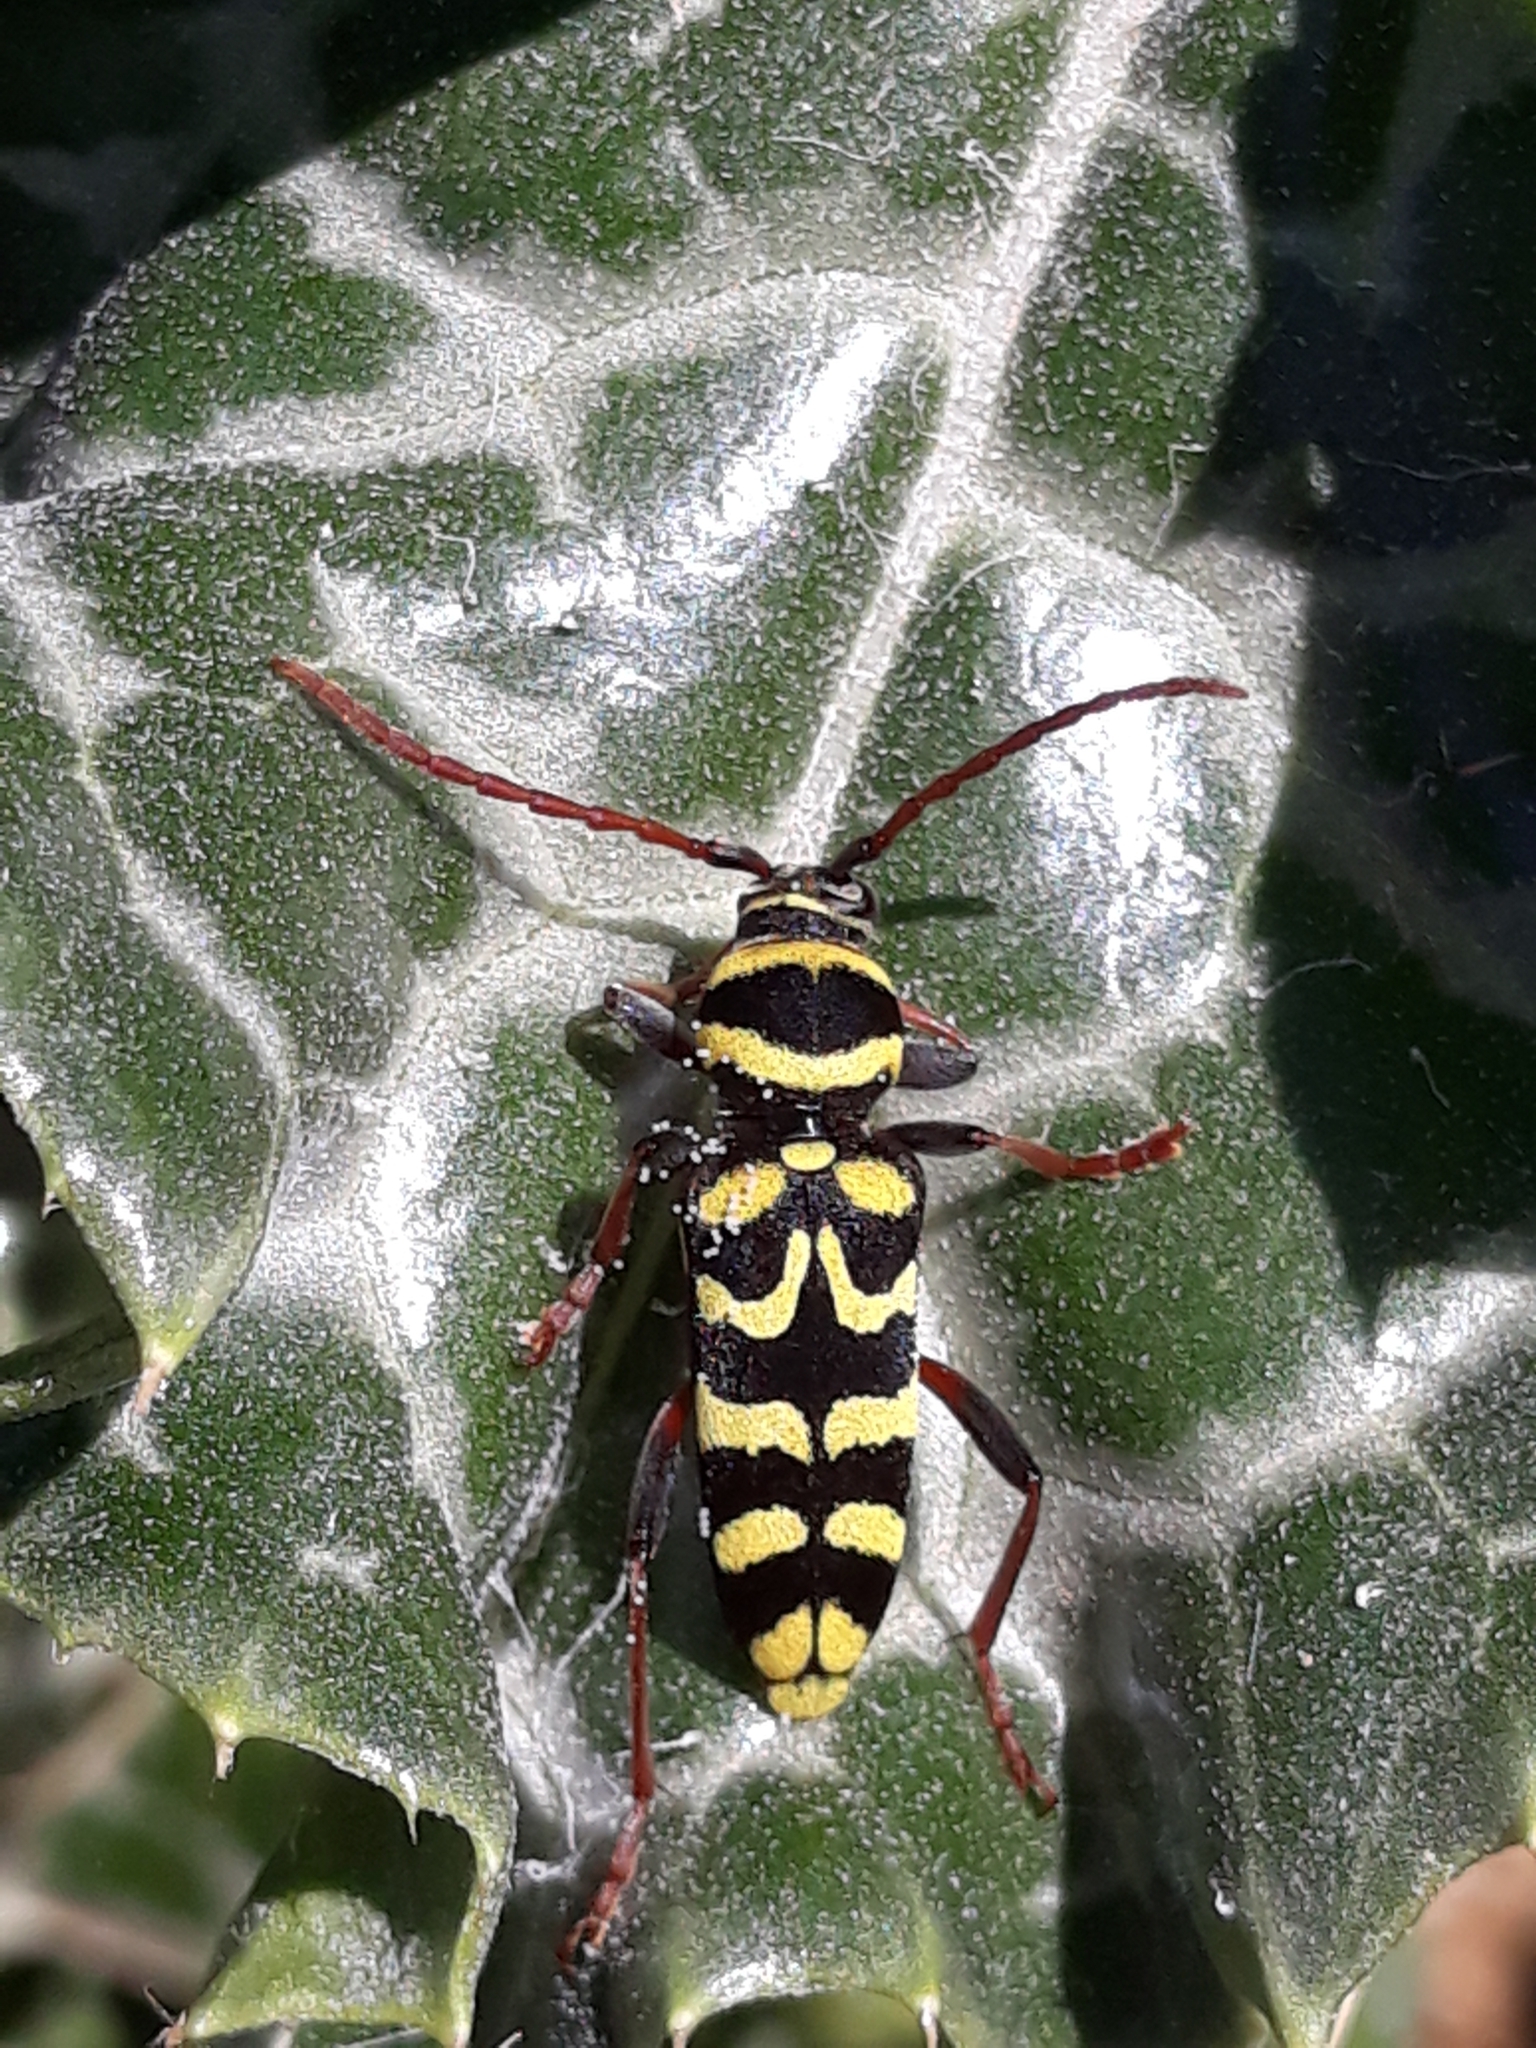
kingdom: Animalia
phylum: Arthropoda
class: Insecta
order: Coleoptera
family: Cerambycidae
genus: Neoplagionotus
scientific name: Neoplagionotus scalaris
